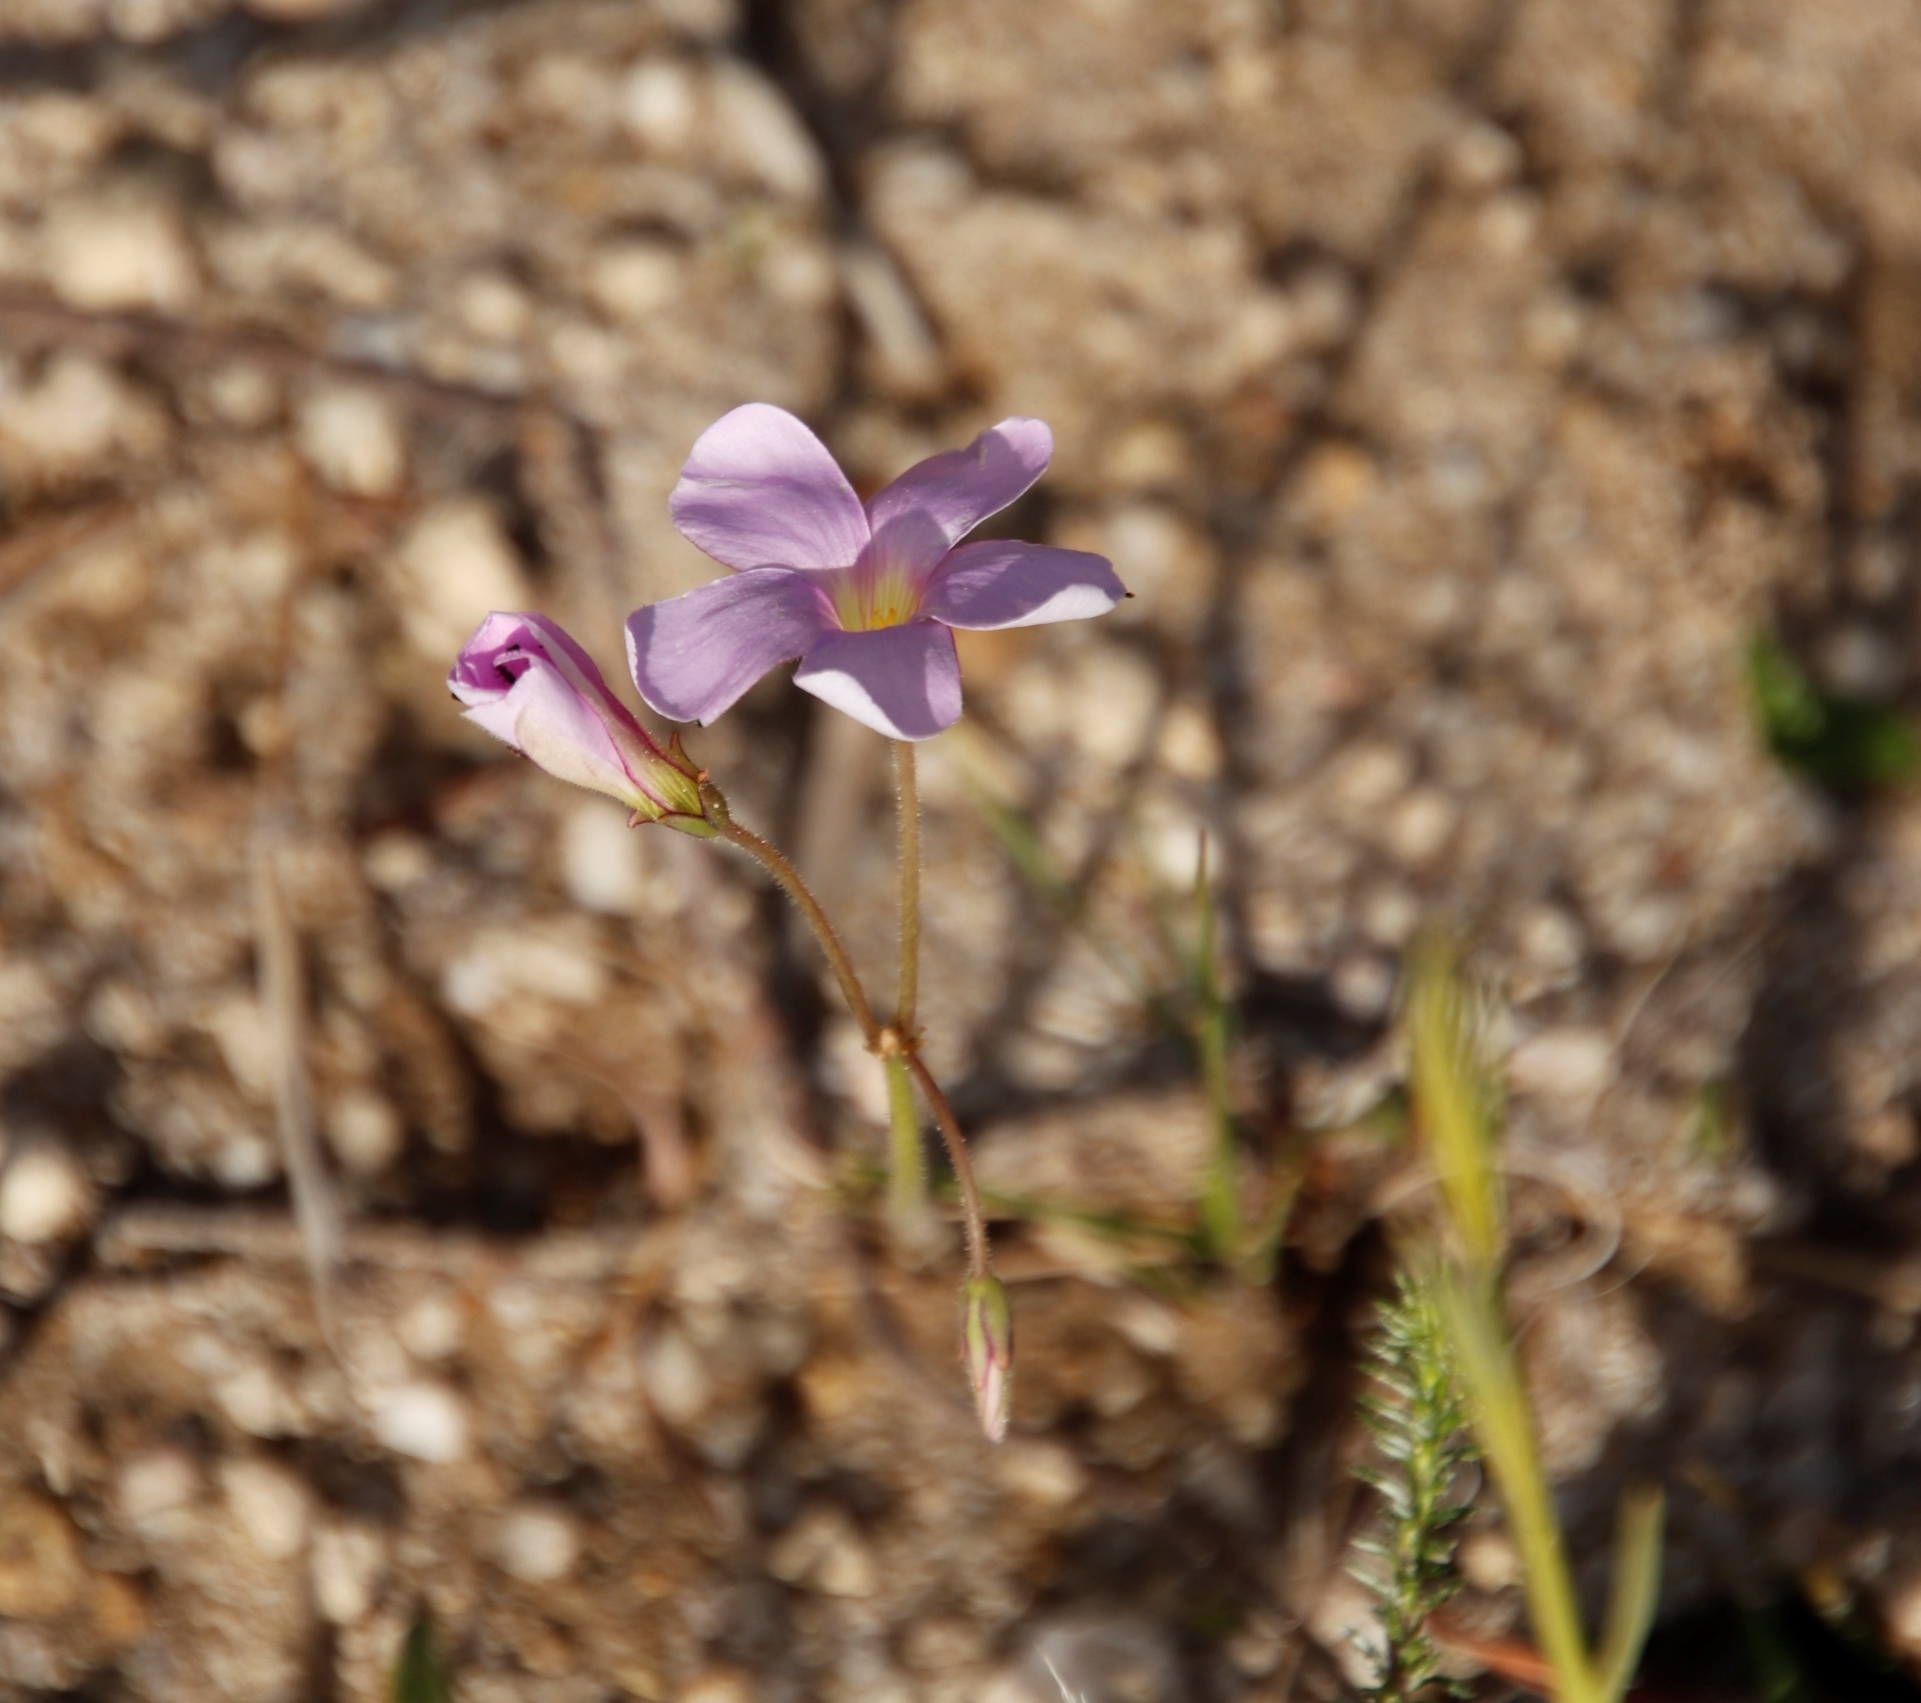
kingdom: Plantae
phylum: Tracheophyta
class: Magnoliopsida
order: Oxalidales
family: Oxalidaceae
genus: Oxalis
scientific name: Oxalis livida
